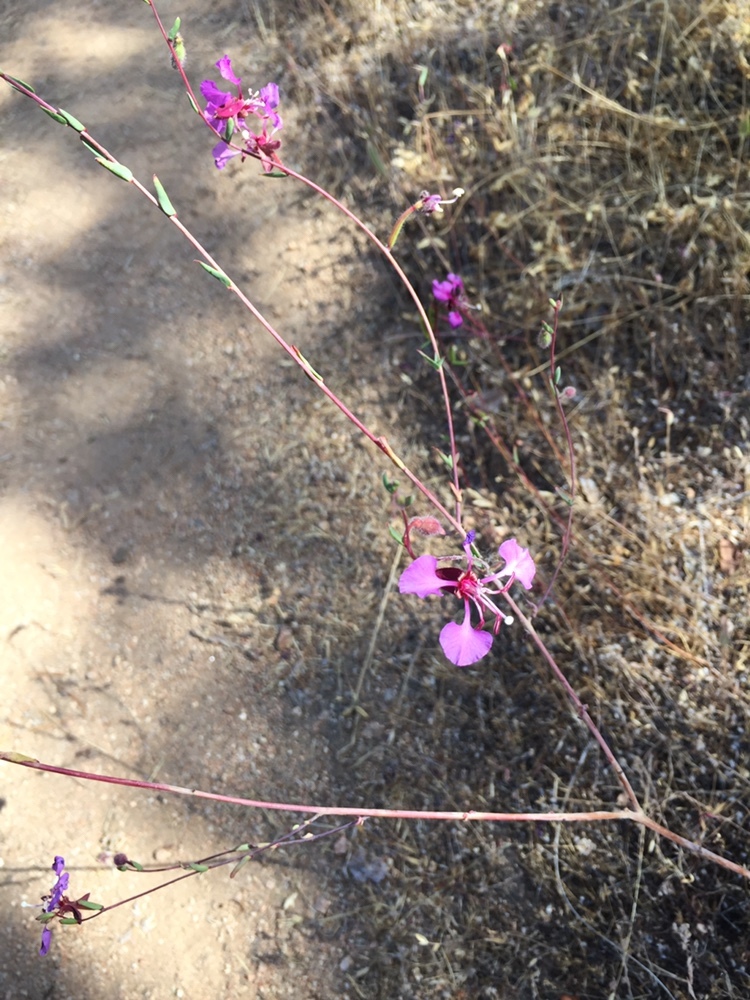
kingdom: Plantae
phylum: Tracheophyta
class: Magnoliopsida
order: Myrtales
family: Onagraceae
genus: Clarkia
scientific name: Clarkia unguiculata
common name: Clarkia
